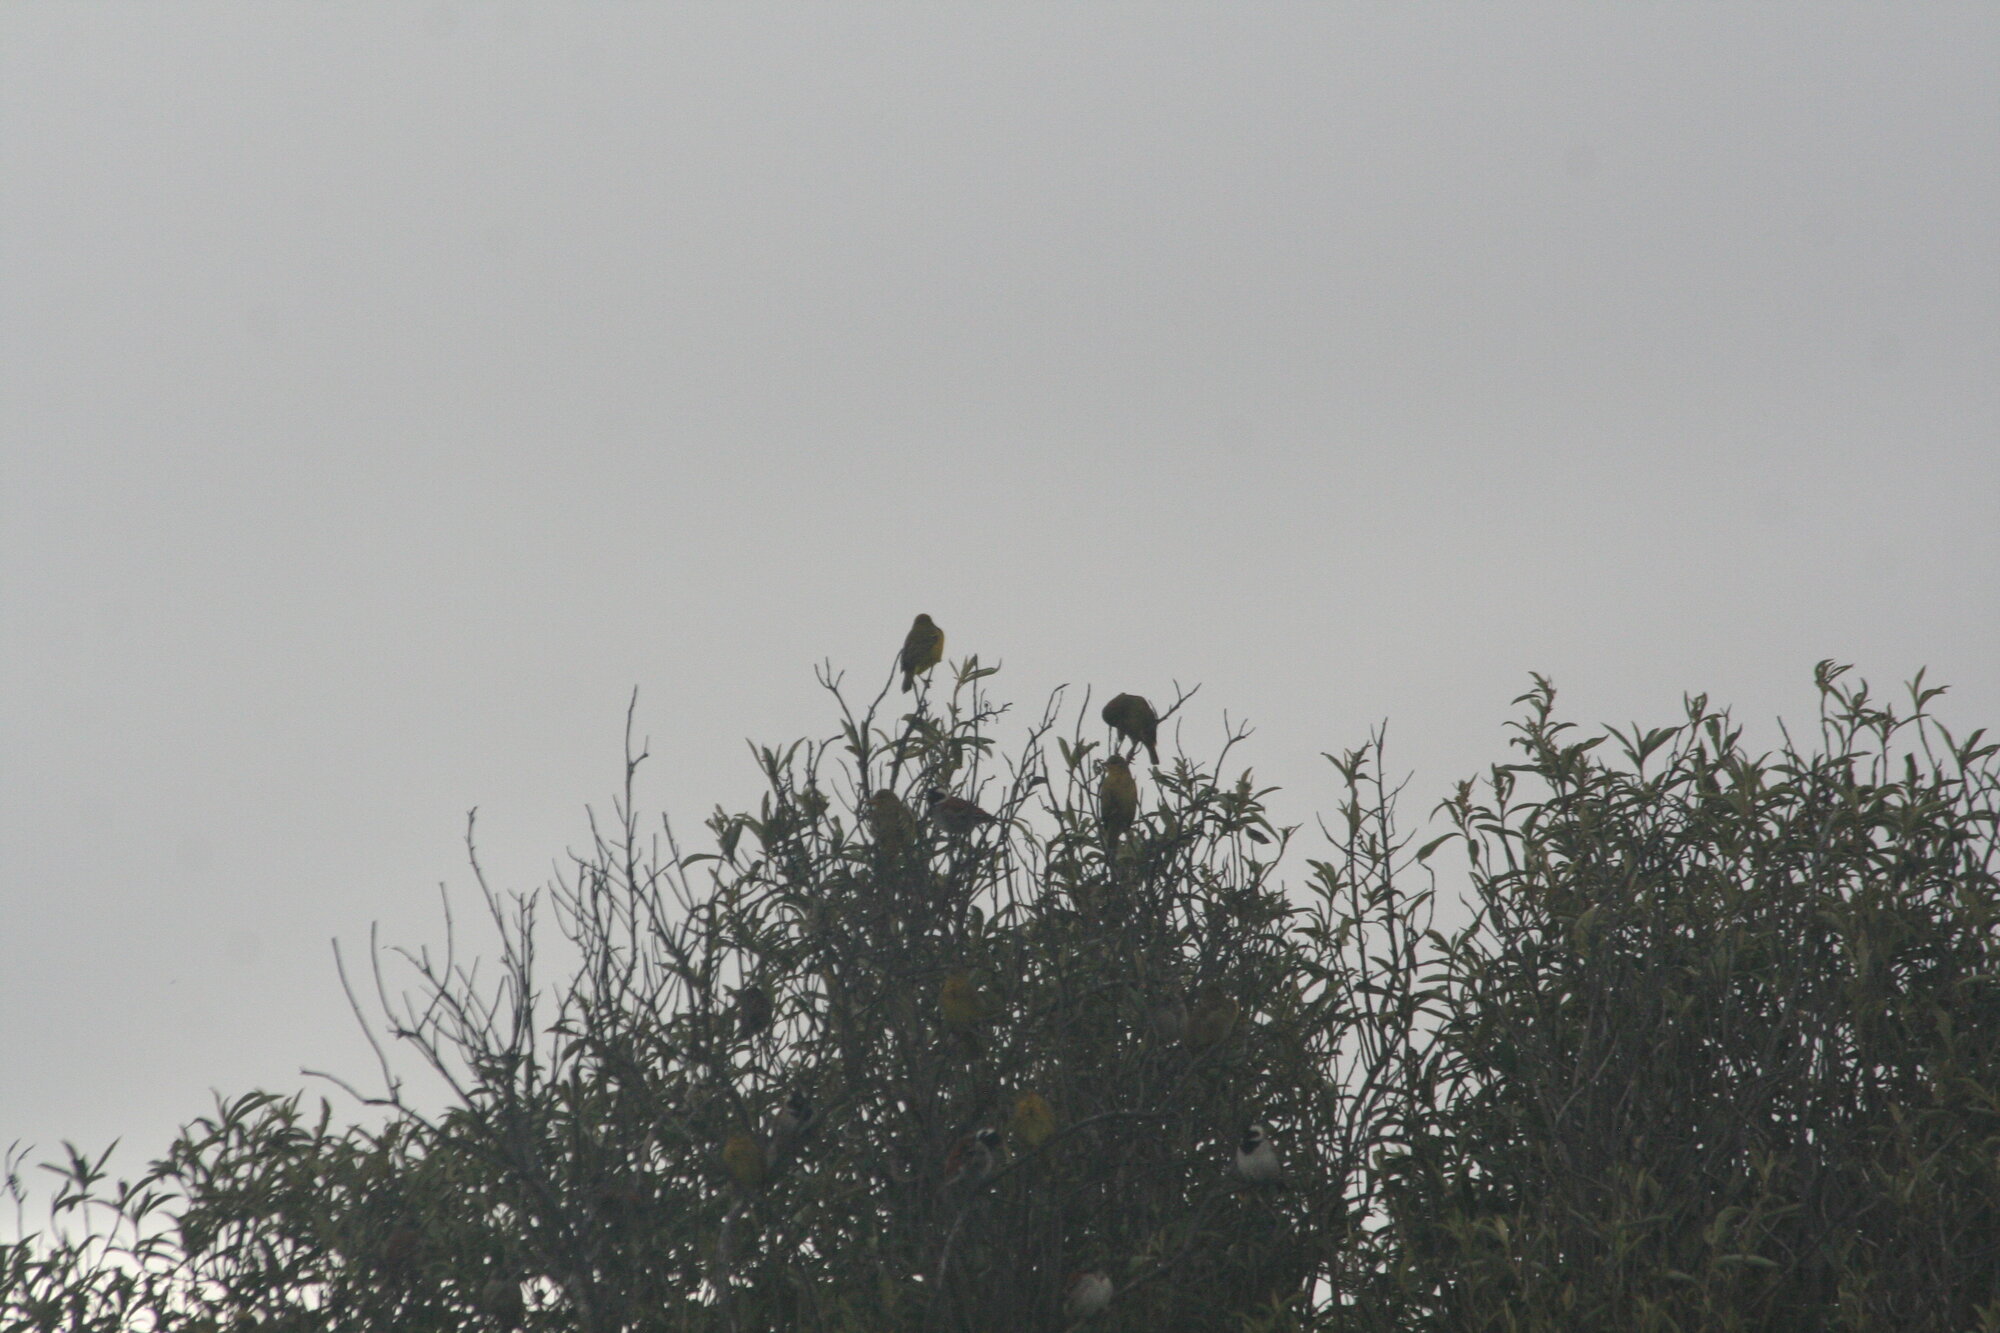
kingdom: Animalia
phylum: Chordata
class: Aves
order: Passeriformes
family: Ploceidae
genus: Ploceus
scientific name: Ploceus capensis
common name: Cape weaver
